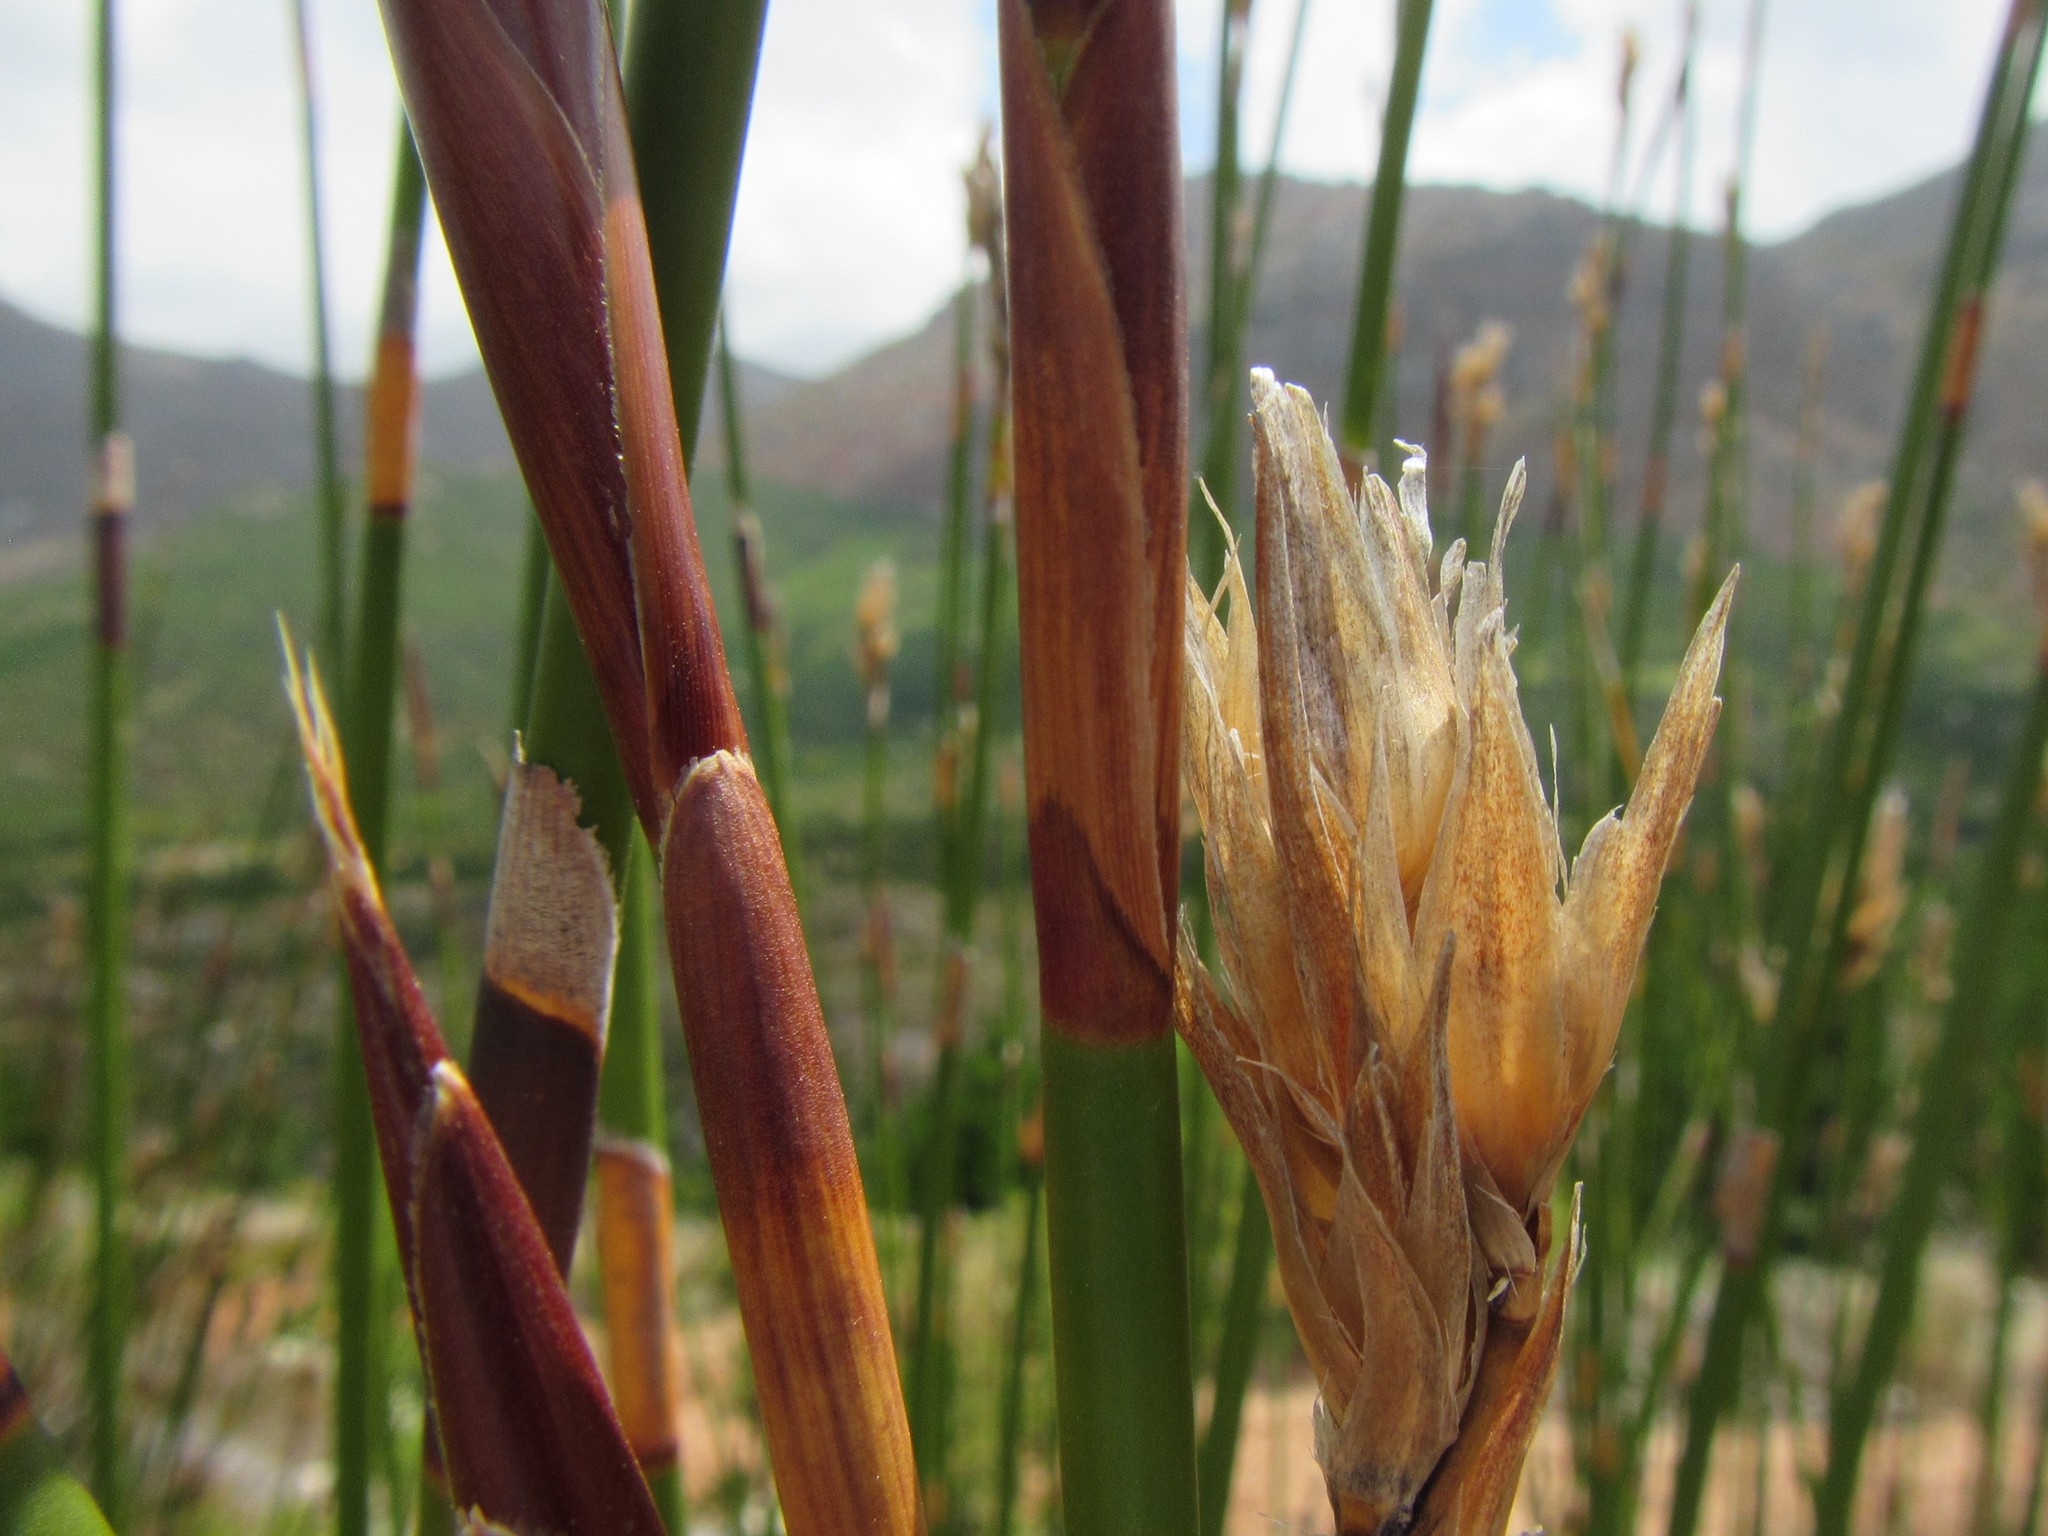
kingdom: Plantae
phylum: Tracheophyta
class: Liliopsida
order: Poales
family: Restionaceae
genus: Ceratocaryum
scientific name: Ceratocaryum persistens
